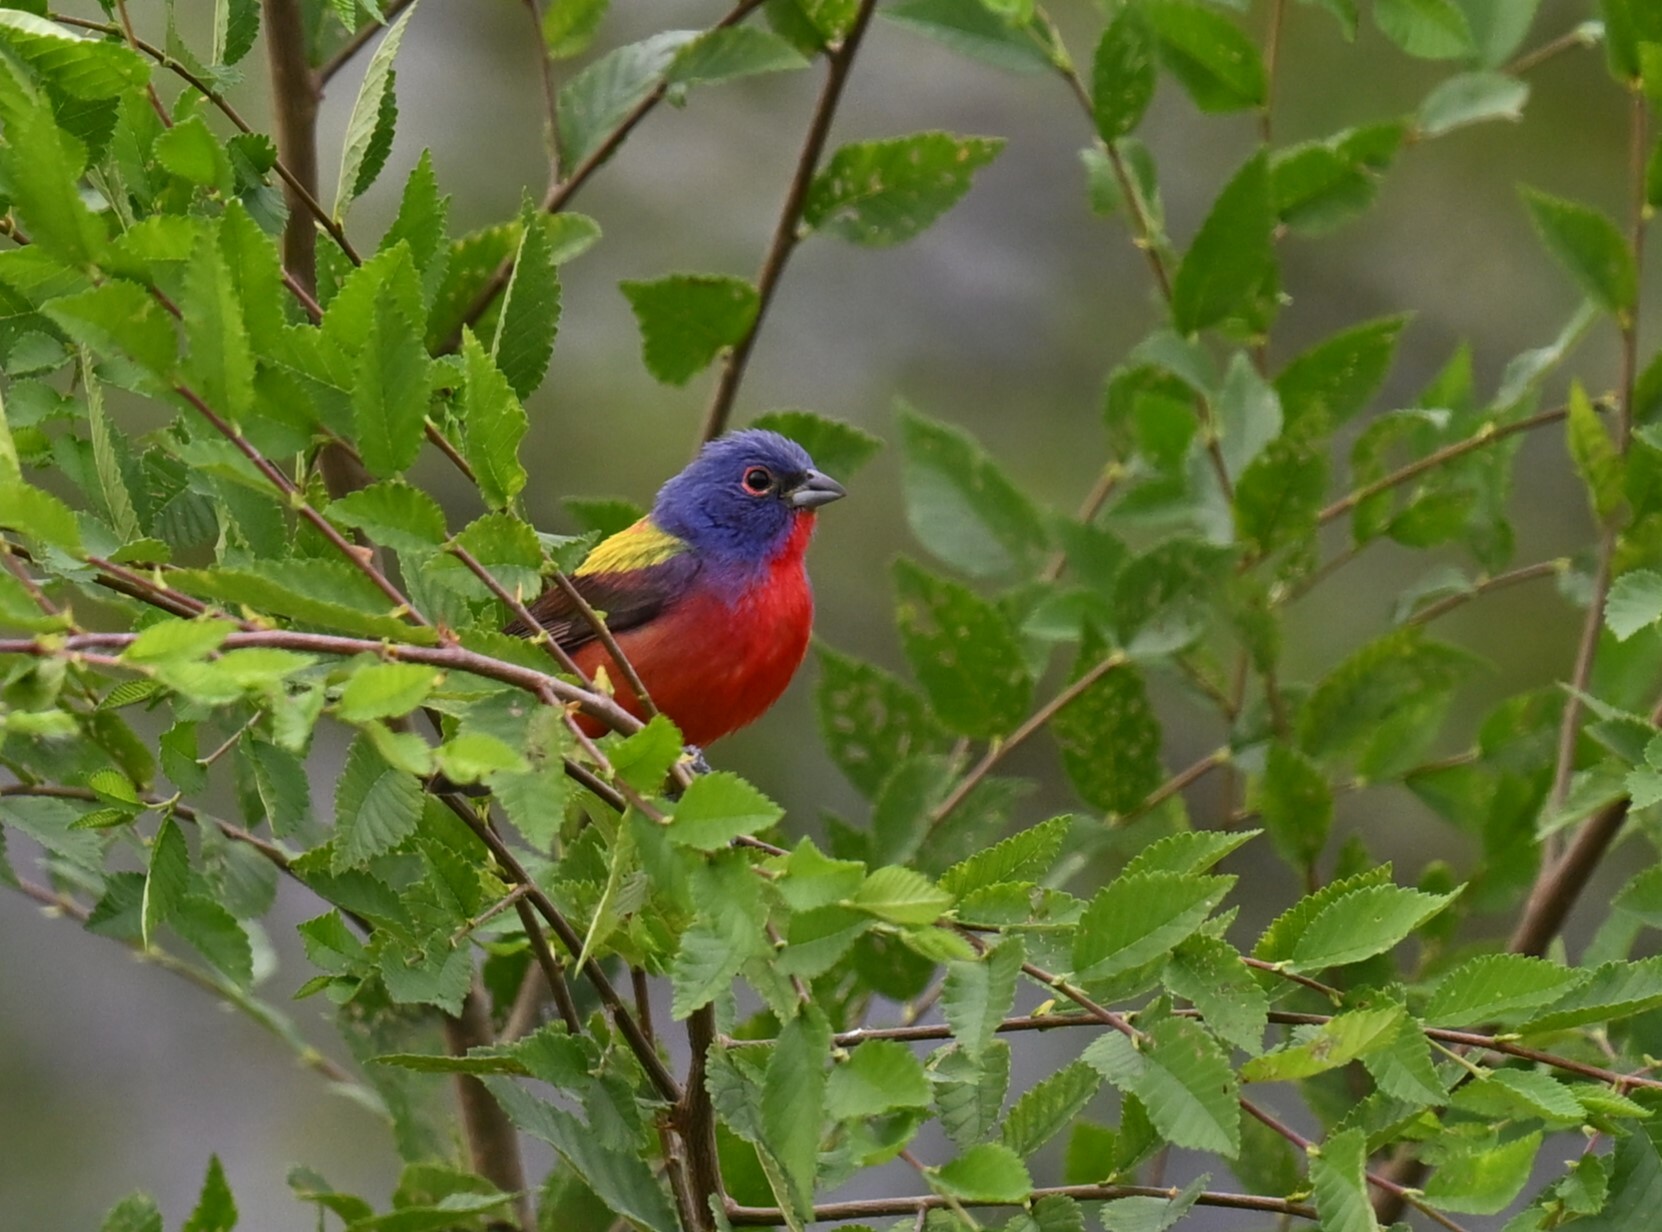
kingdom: Animalia
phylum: Chordata
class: Aves
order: Passeriformes
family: Cardinalidae
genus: Passerina
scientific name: Passerina ciris
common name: Painted bunting
